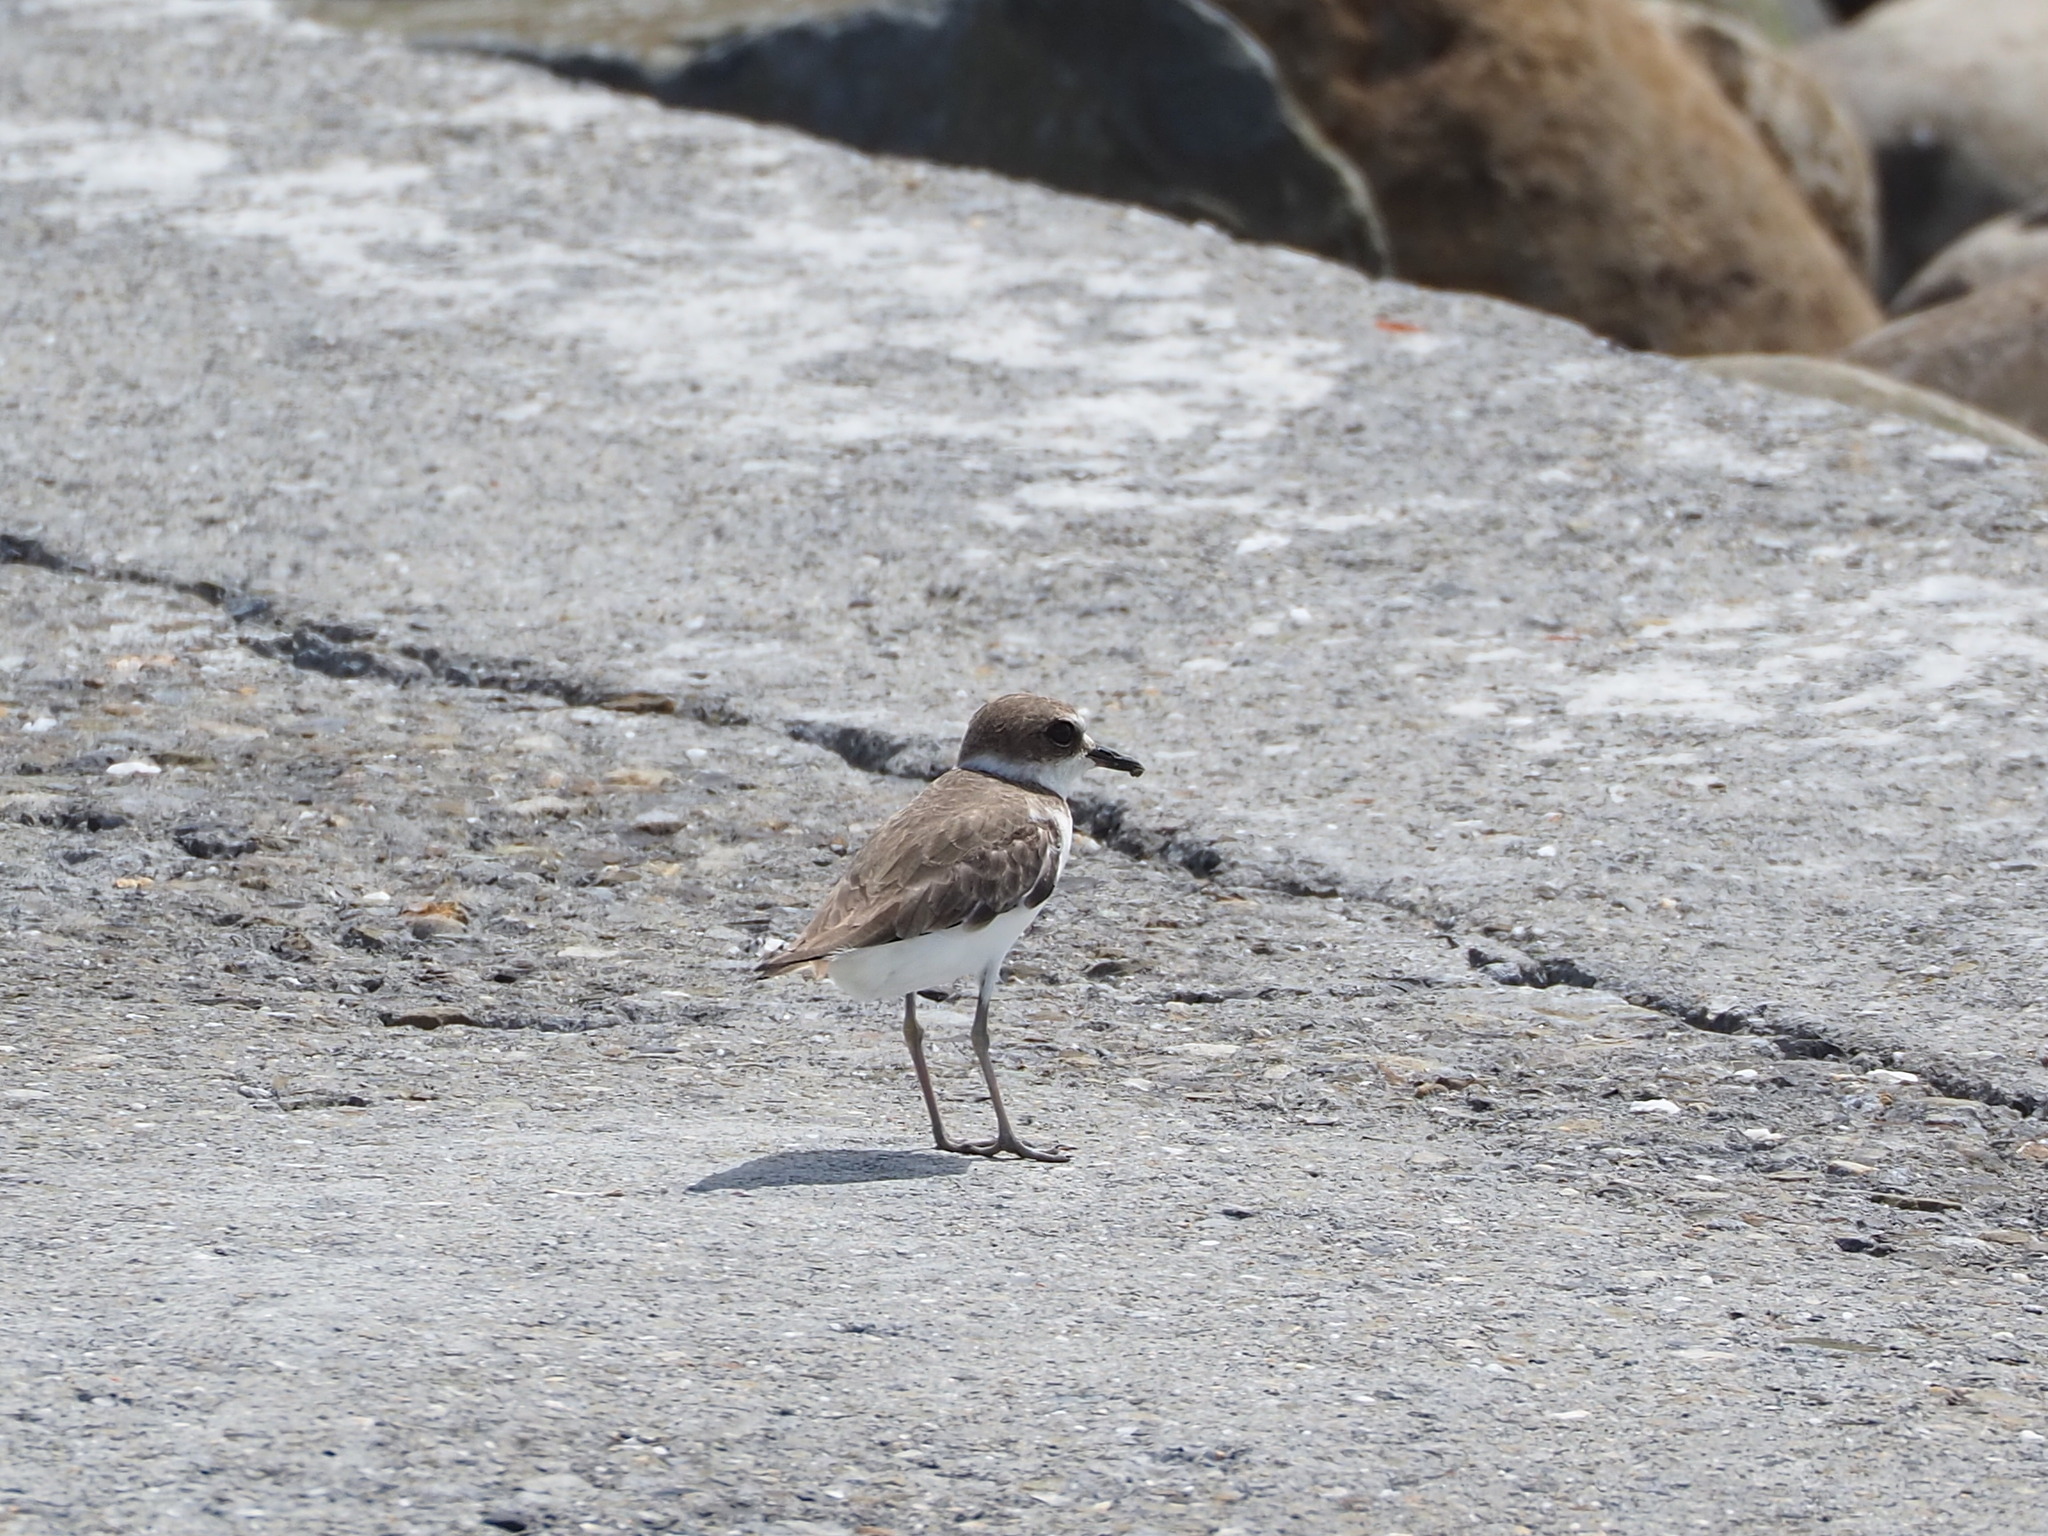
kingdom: Animalia
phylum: Chordata
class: Aves
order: Charadriiformes
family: Charadriidae
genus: Charadrius
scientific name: Charadrius alexandrinus
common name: Kentish plover
